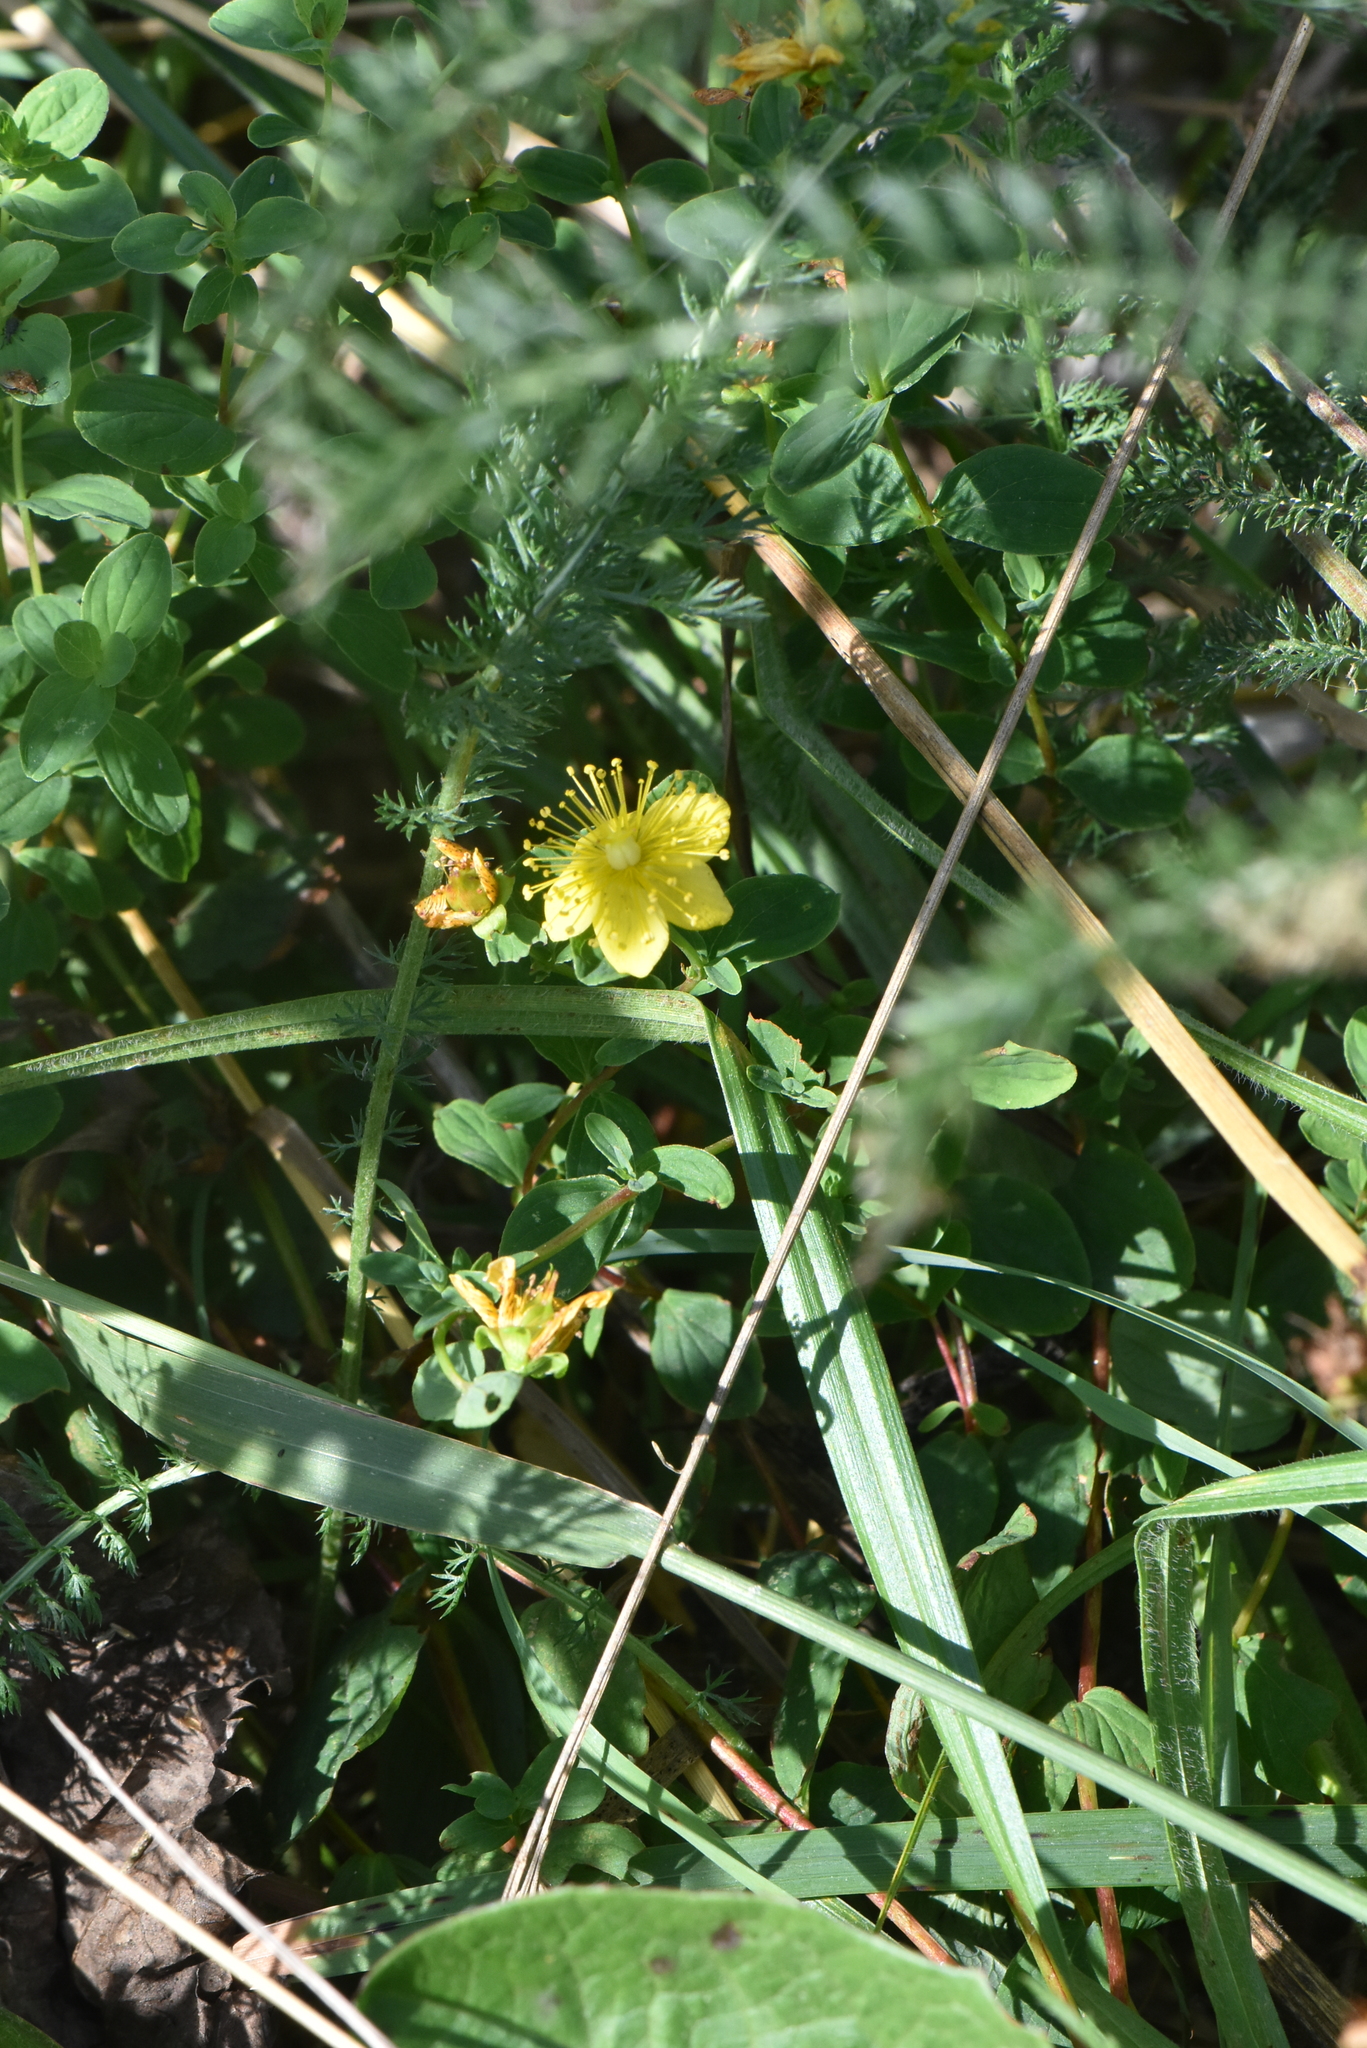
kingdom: Plantae
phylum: Tracheophyta
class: Magnoliopsida
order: Malpighiales
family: Hypericaceae
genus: Hypericum
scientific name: Hypericum maculatum
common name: Imperforate st. john's-wort
